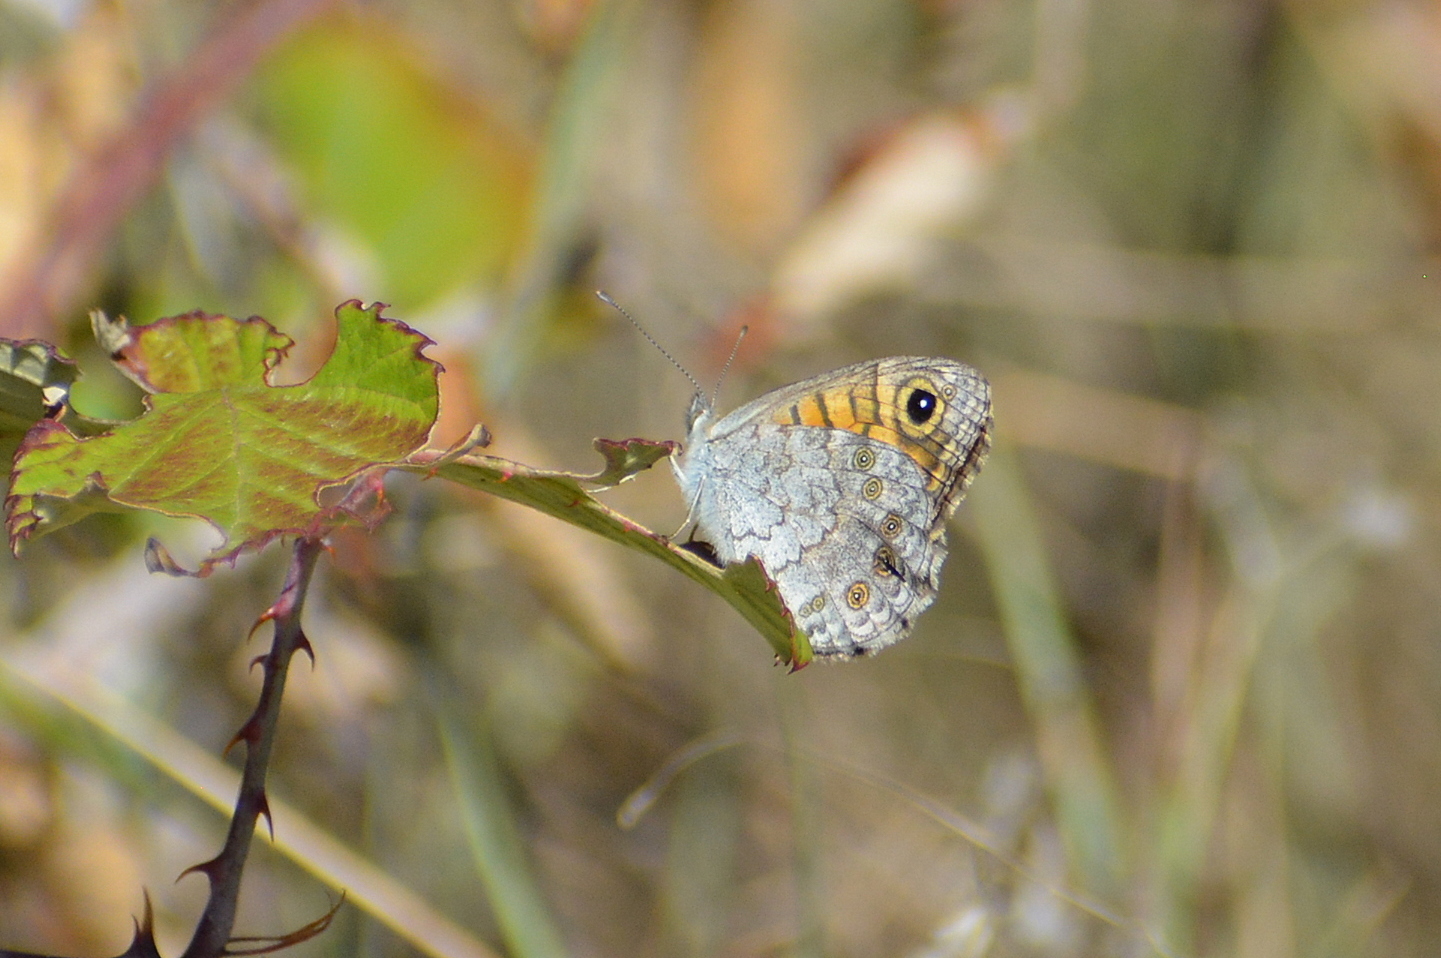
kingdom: Animalia
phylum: Arthropoda
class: Insecta
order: Lepidoptera
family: Nymphalidae
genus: Pararge
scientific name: Pararge Lasiommata megera
